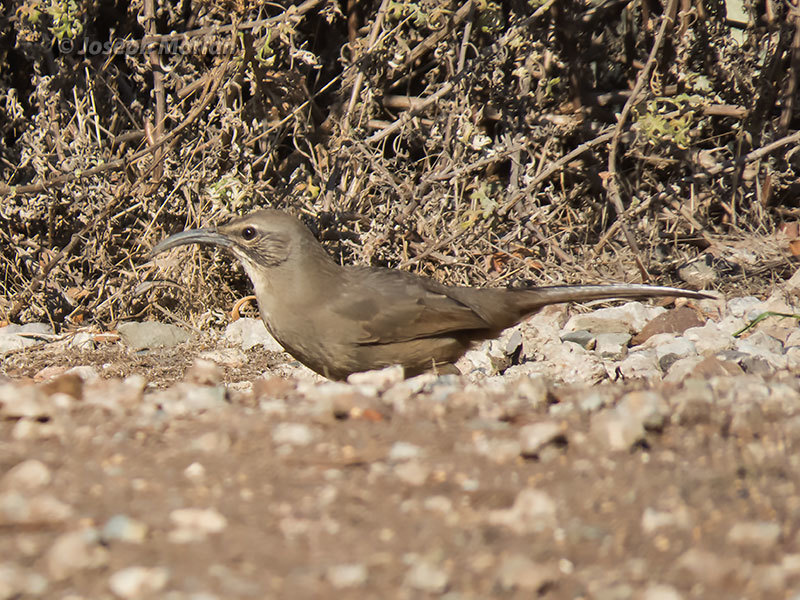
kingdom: Animalia
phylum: Chordata
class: Aves
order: Passeriformes
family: Mimidae
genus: Toxostoma
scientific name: Toxostoma redivivum
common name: California thrasher
